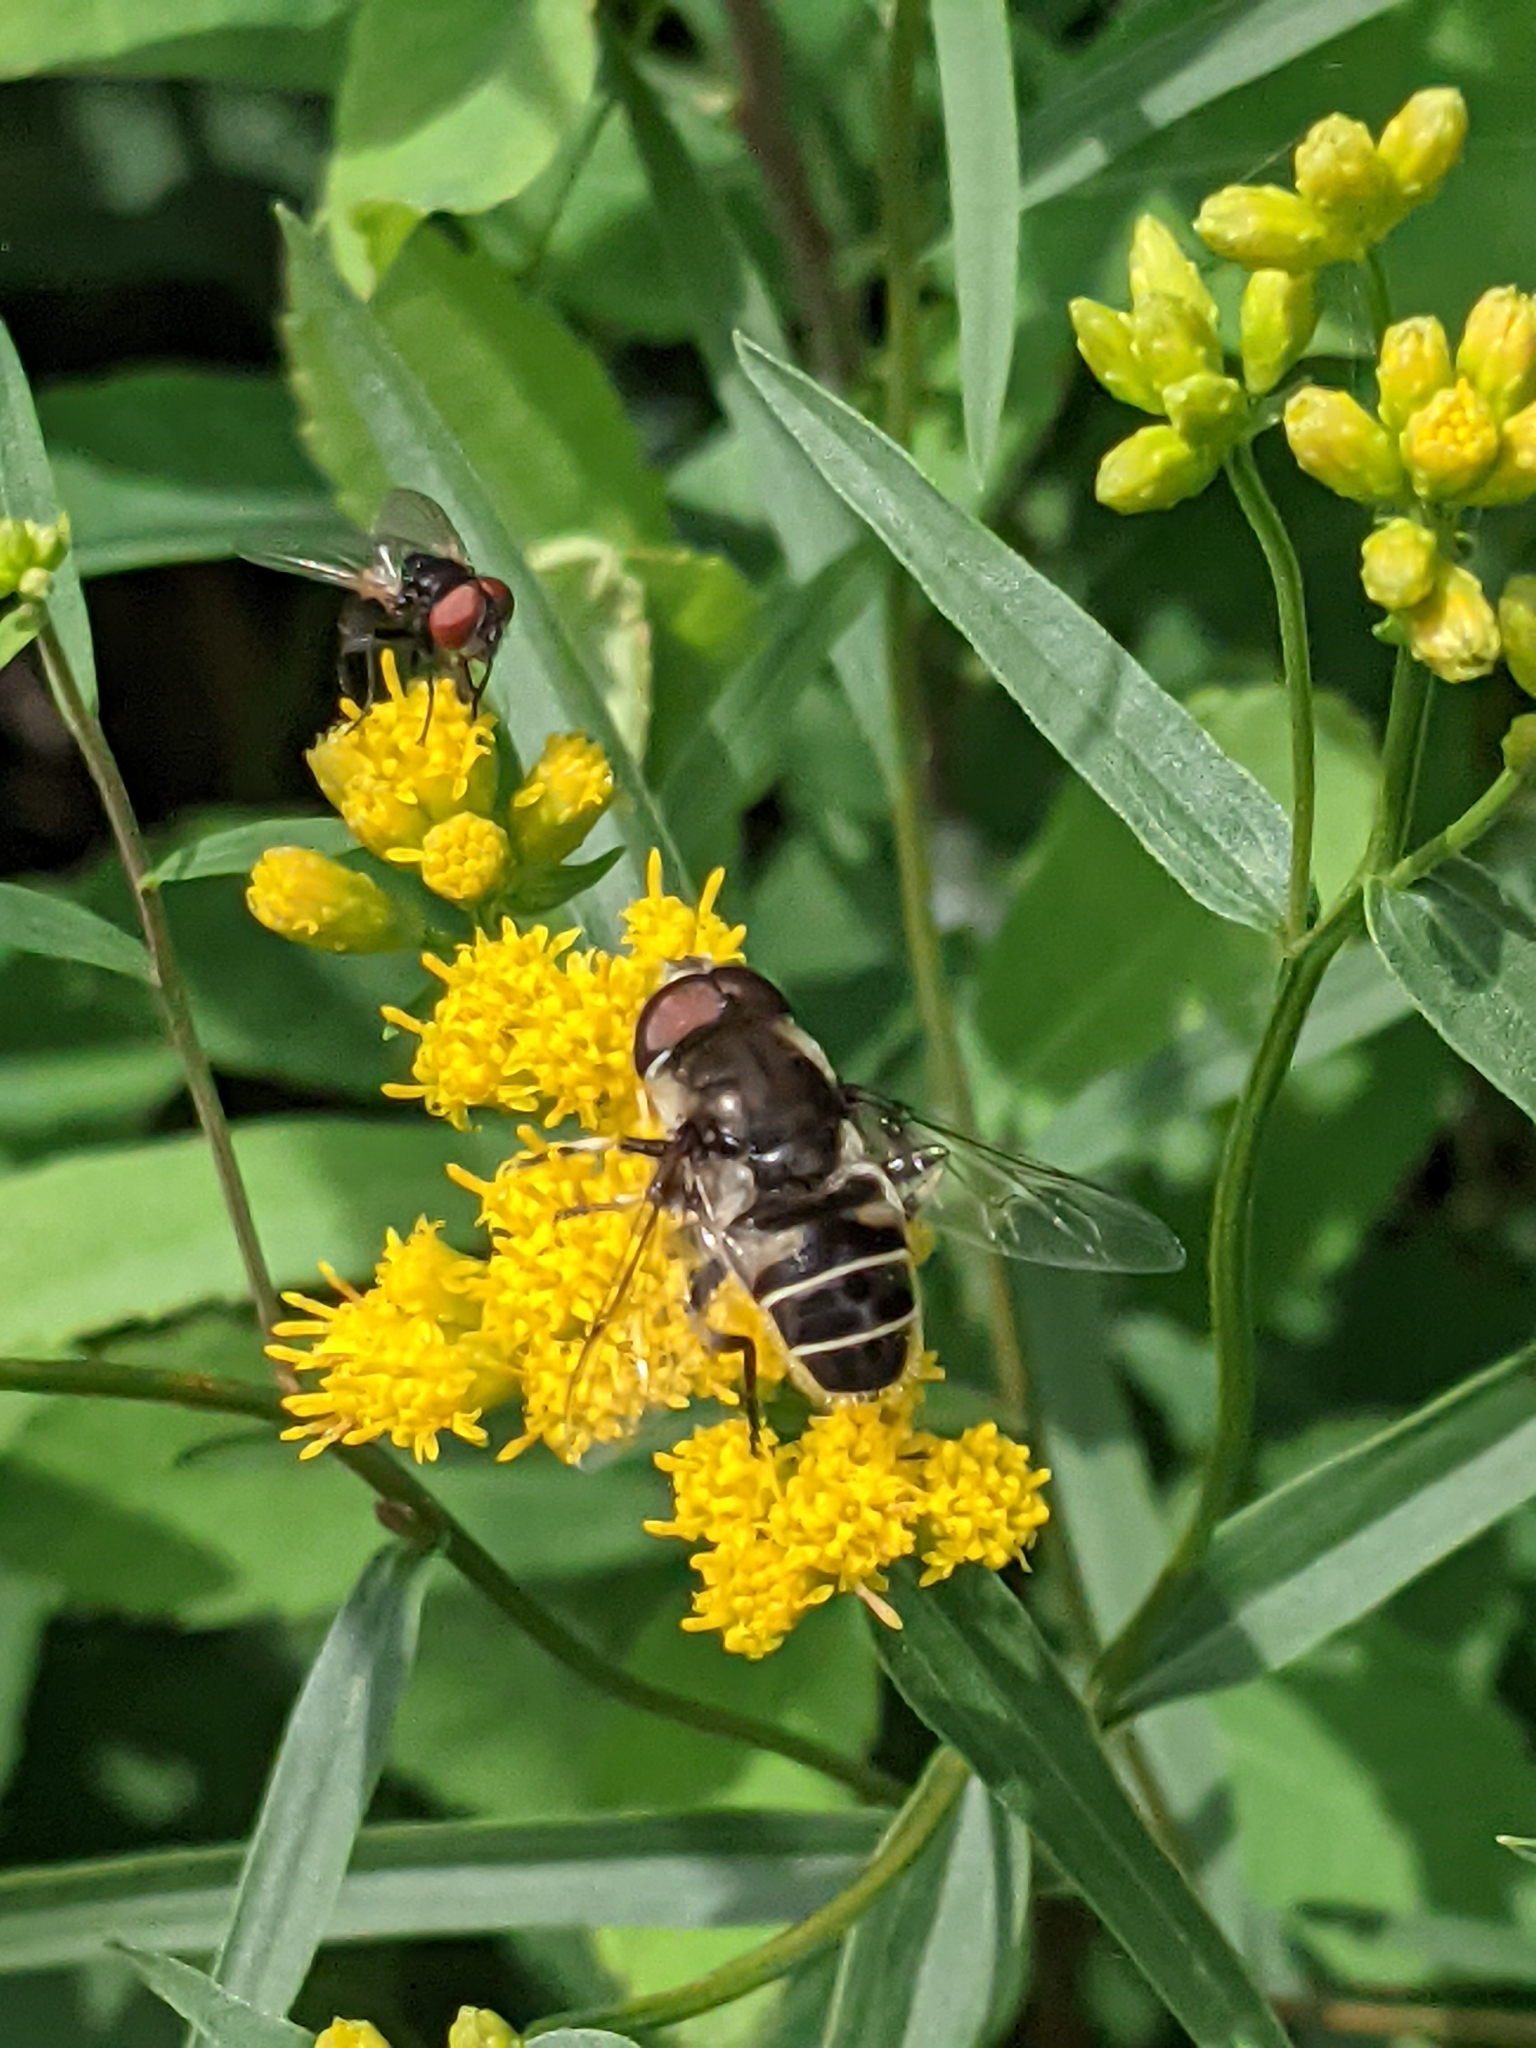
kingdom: Animalia
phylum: Arthropoda
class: Insecta
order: Diptera
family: Syrphidae
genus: Eristalis
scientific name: Eristalis dimidiata
